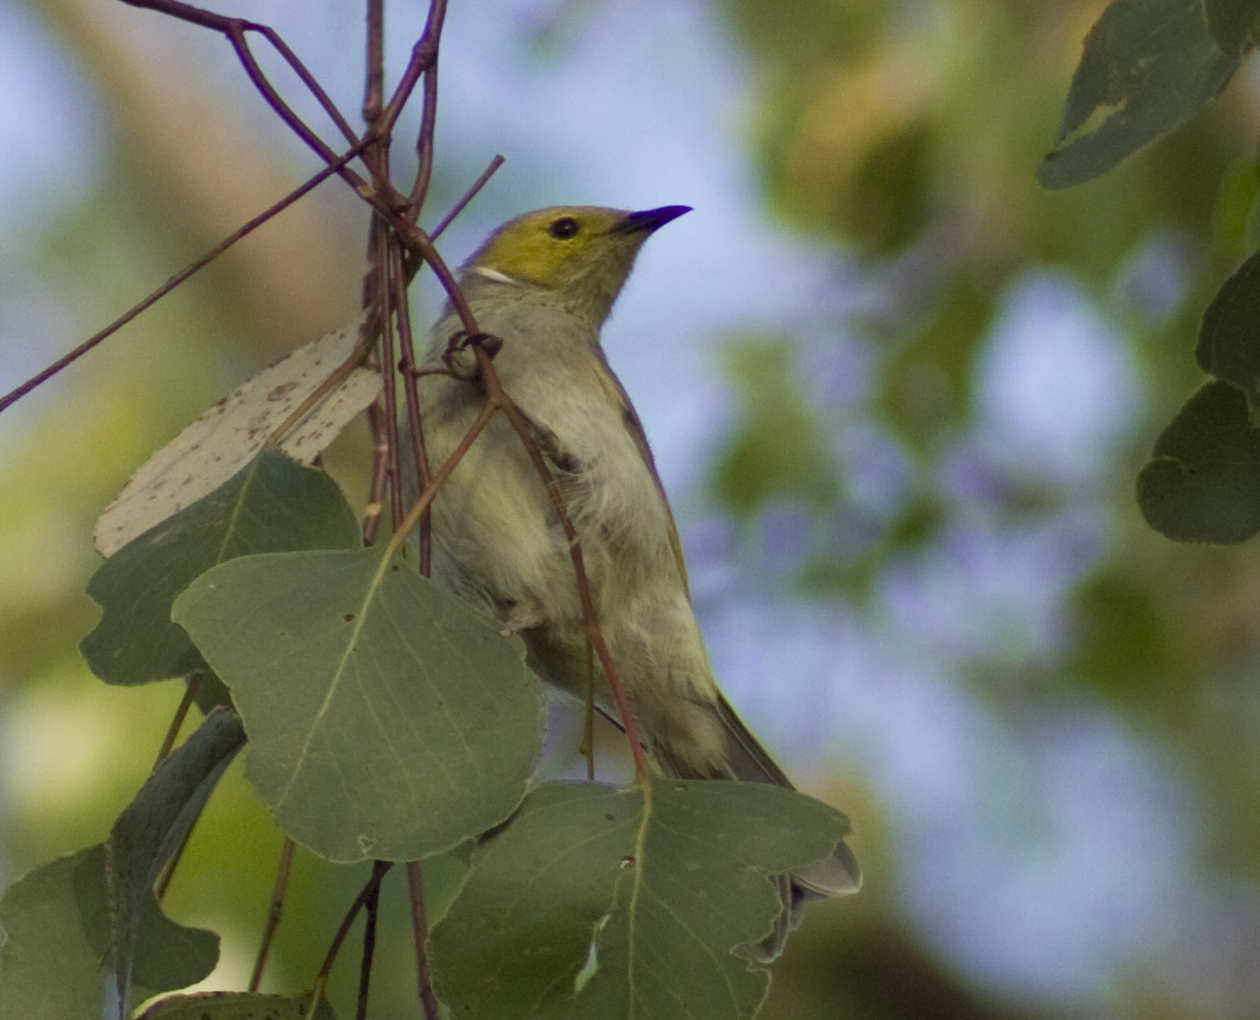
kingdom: Animalia
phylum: Chordata
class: Aves
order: Passeriformes
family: Meliphagidae
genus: Ptilotula
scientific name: Ptilotula penicillata
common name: White-plumed honeyeater
